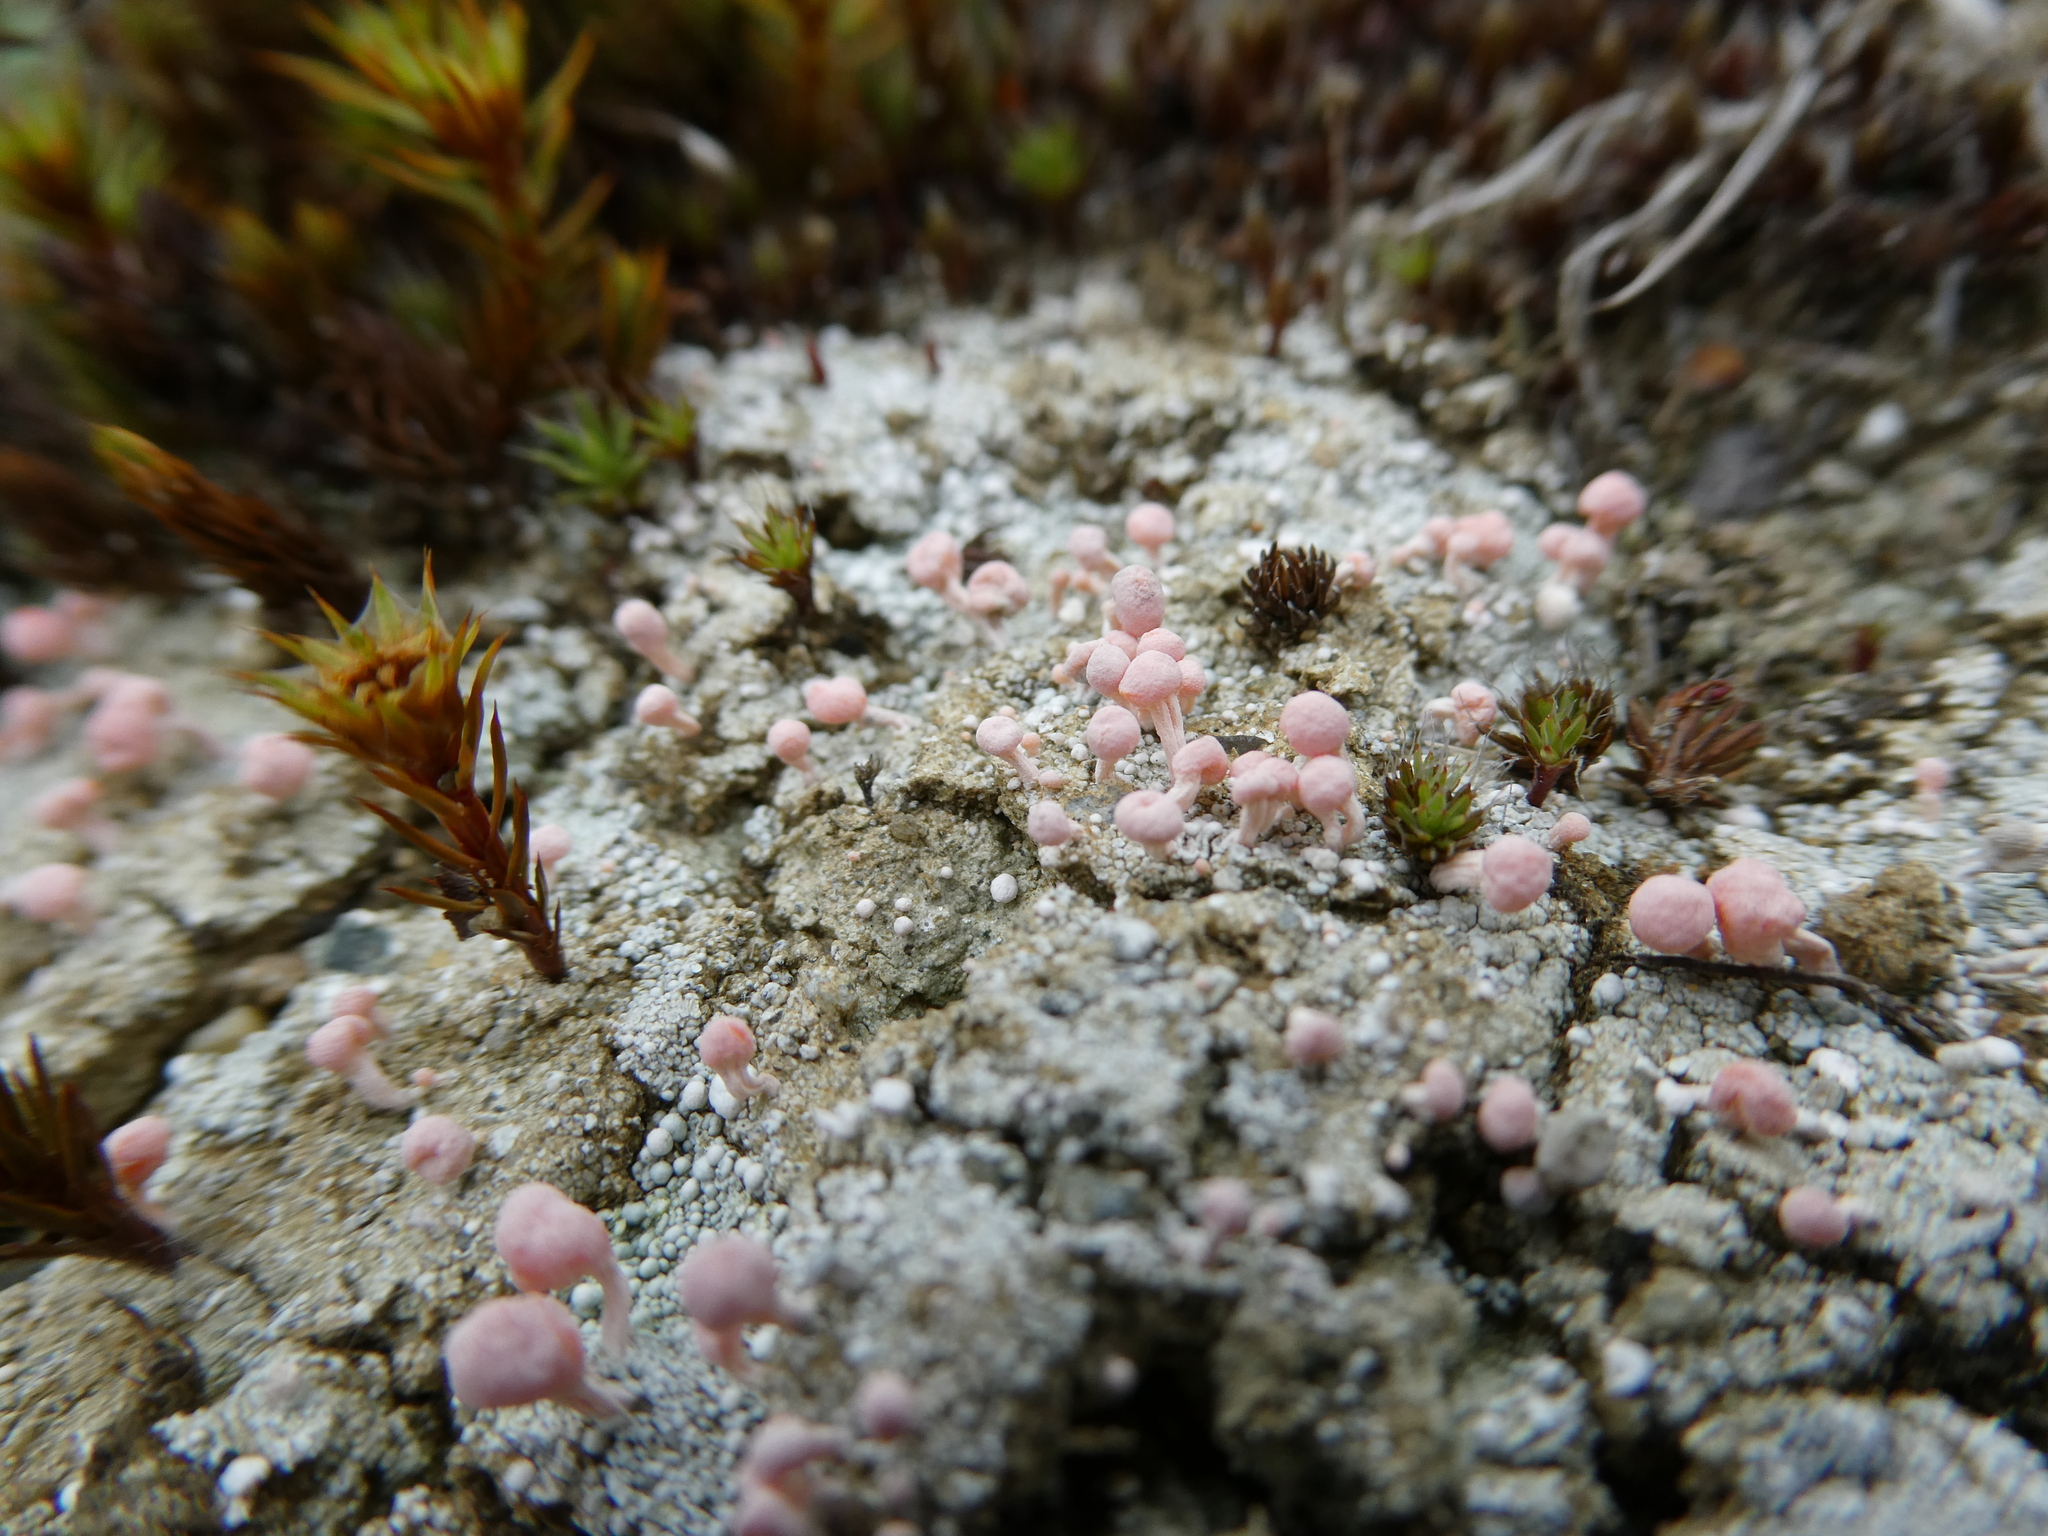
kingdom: Fungi
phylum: Ascomycota
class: Lecanoromycetes
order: Pertusariales
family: Icmadophilaceae
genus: Dibaeis
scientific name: Dibaeis baeomyces
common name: Pink earth lichen
